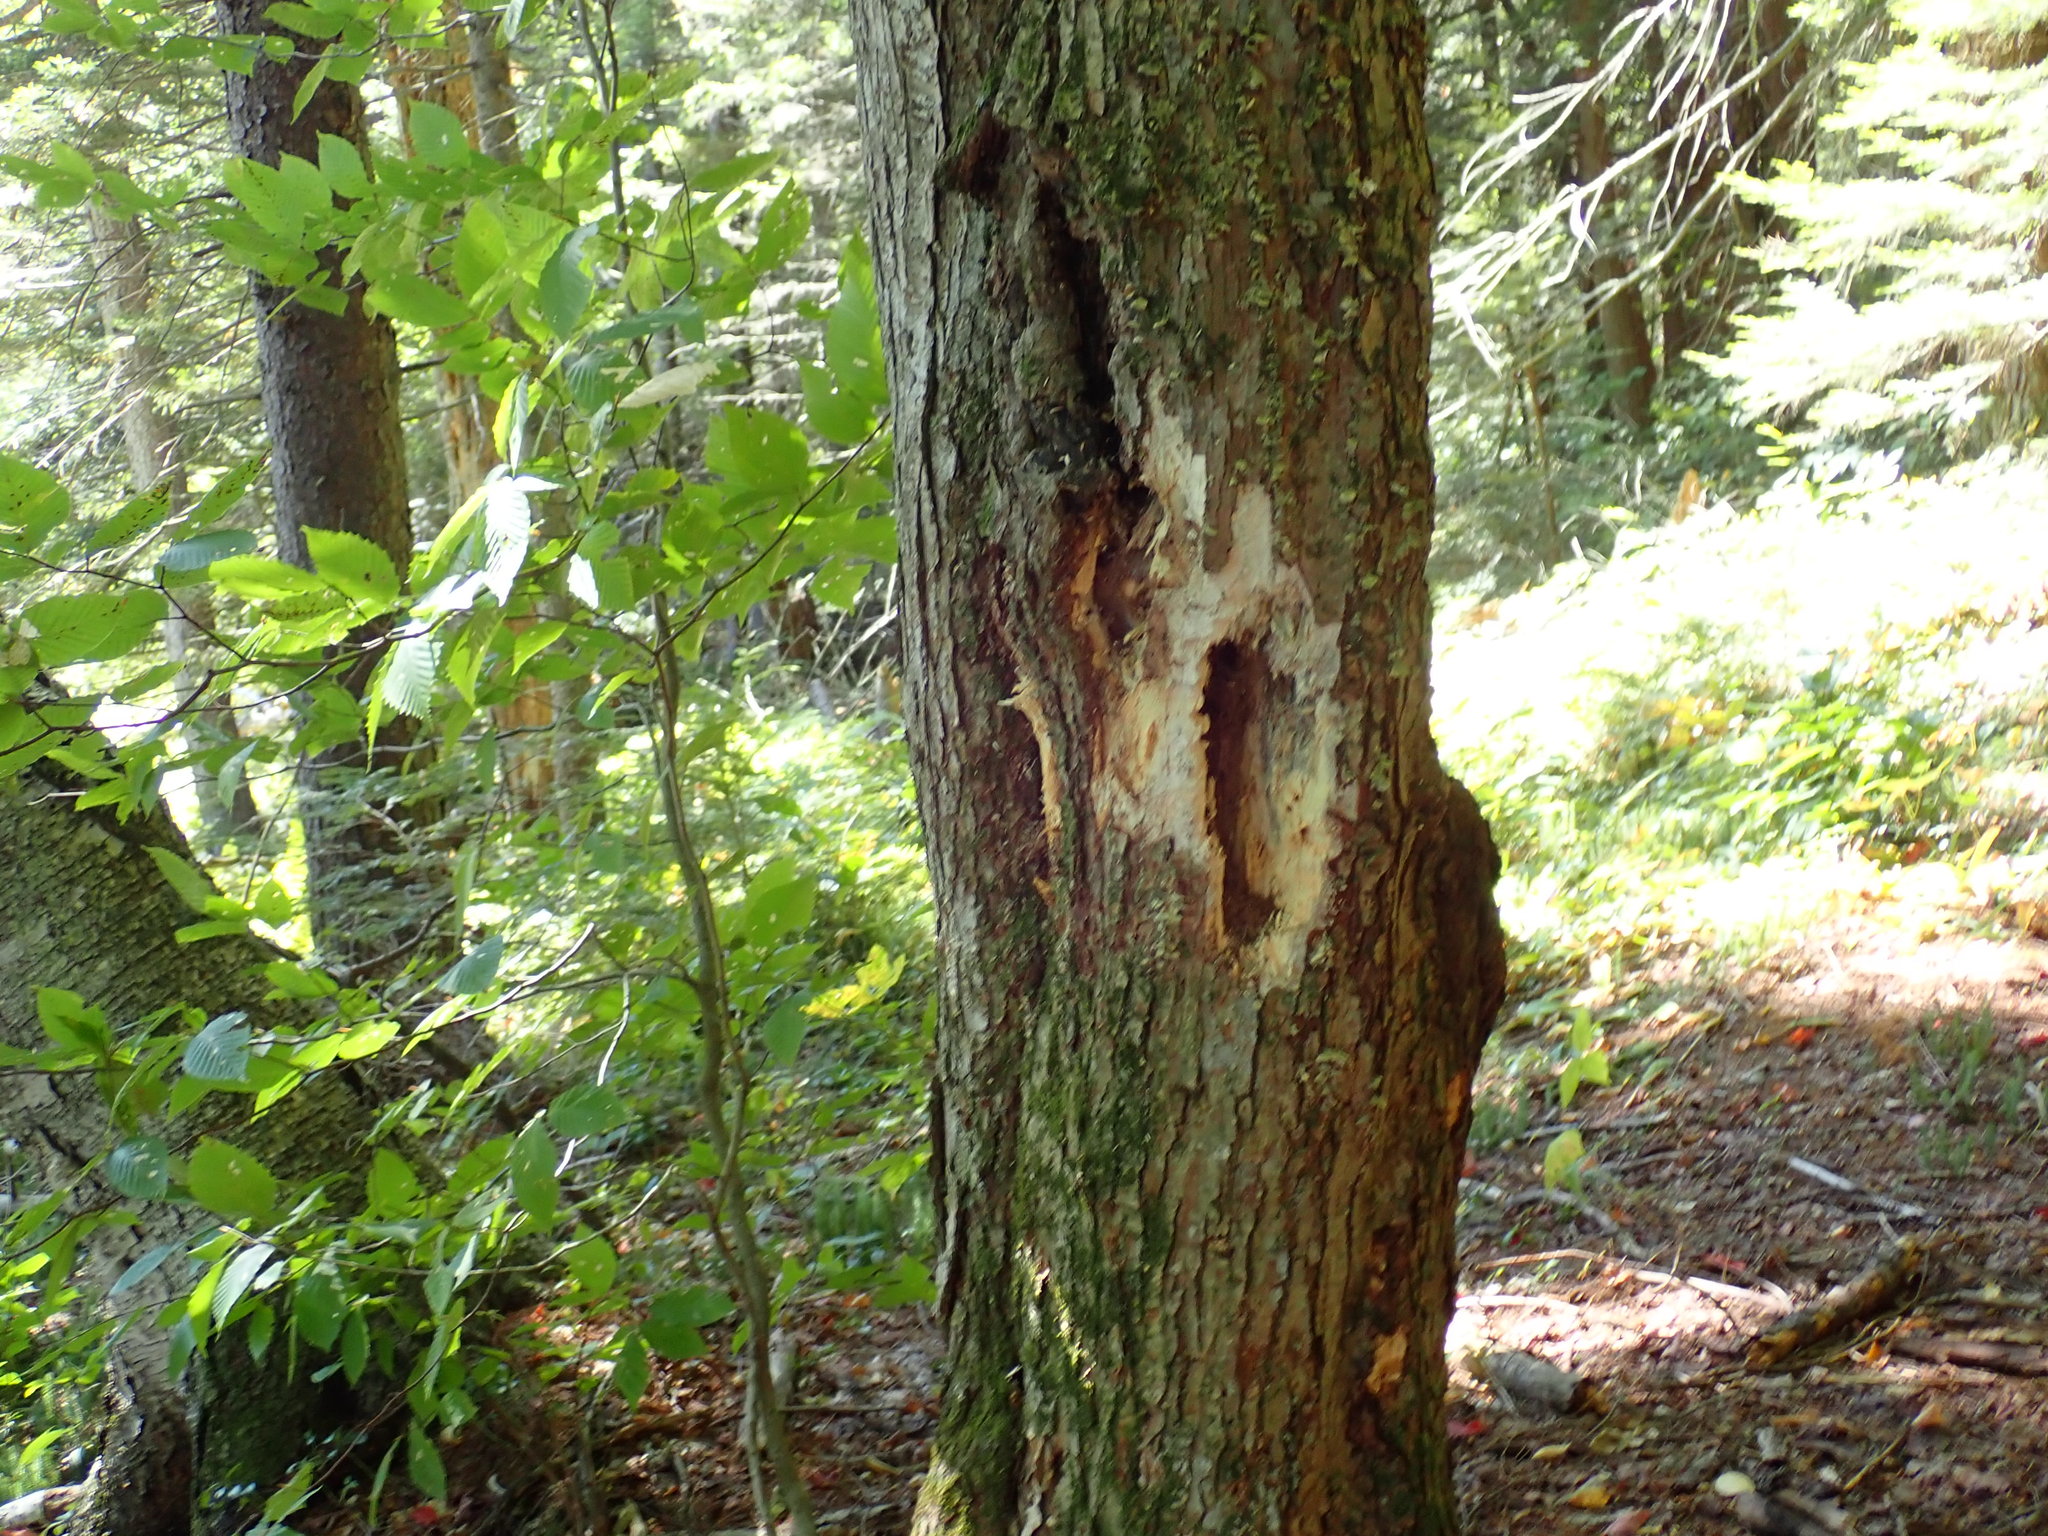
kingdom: Animalia
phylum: Chordata
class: Aves
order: Piciformes
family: Picidae
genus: Dryocopus
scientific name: Dryocopus pileatus
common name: Pileated woodpecker
